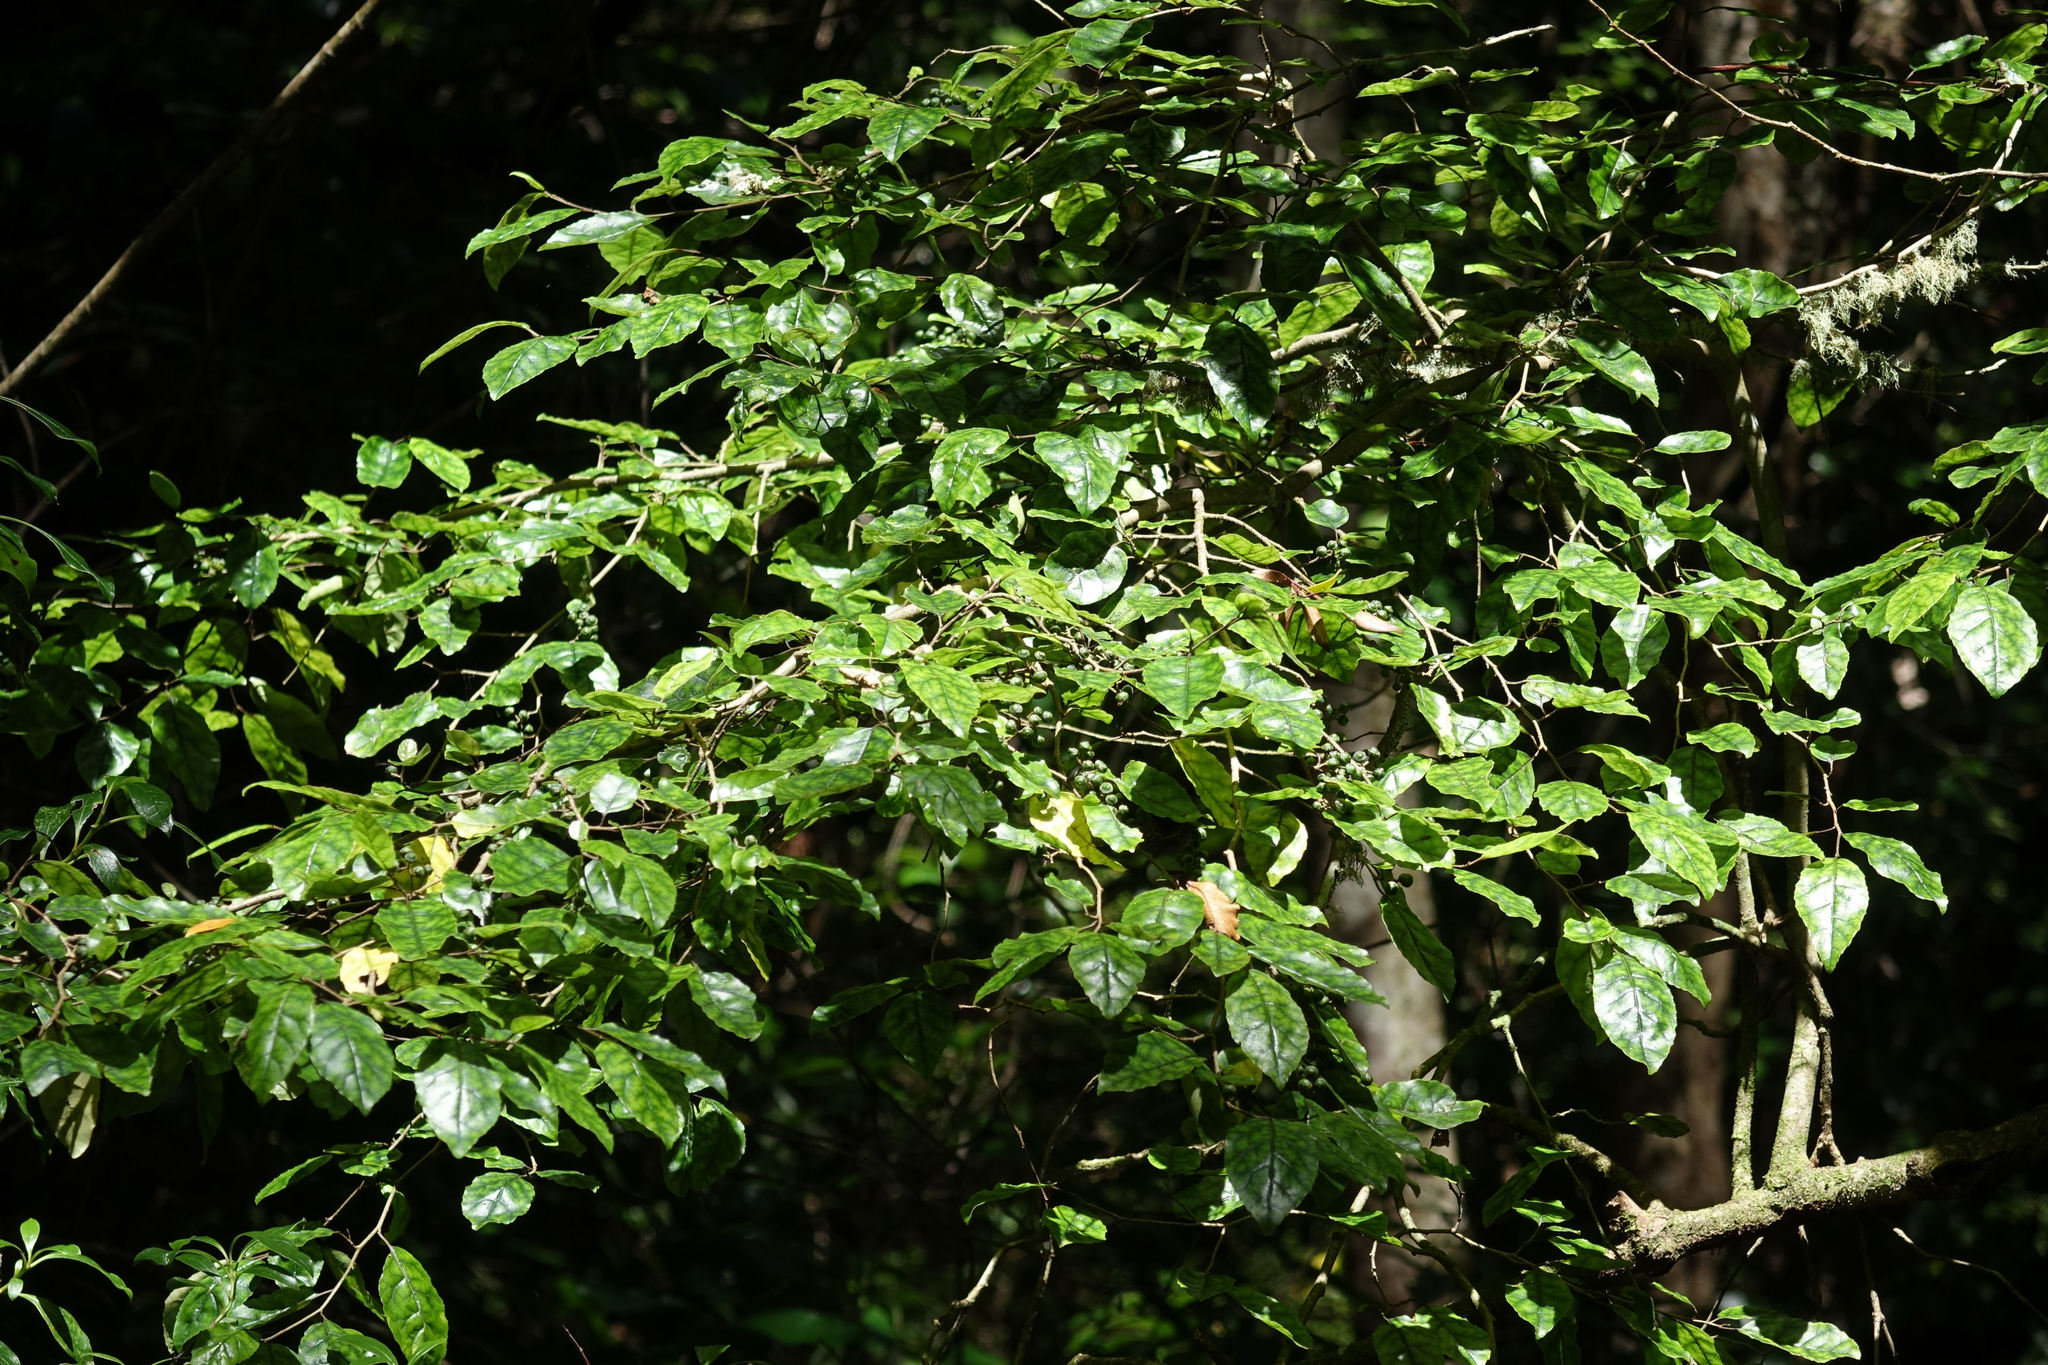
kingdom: Plantae
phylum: Tracheophyta
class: Magnoliopsida
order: Asterales
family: Rousseaceae
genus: Carpodetus
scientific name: Carpodetus serratus
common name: White mapau
